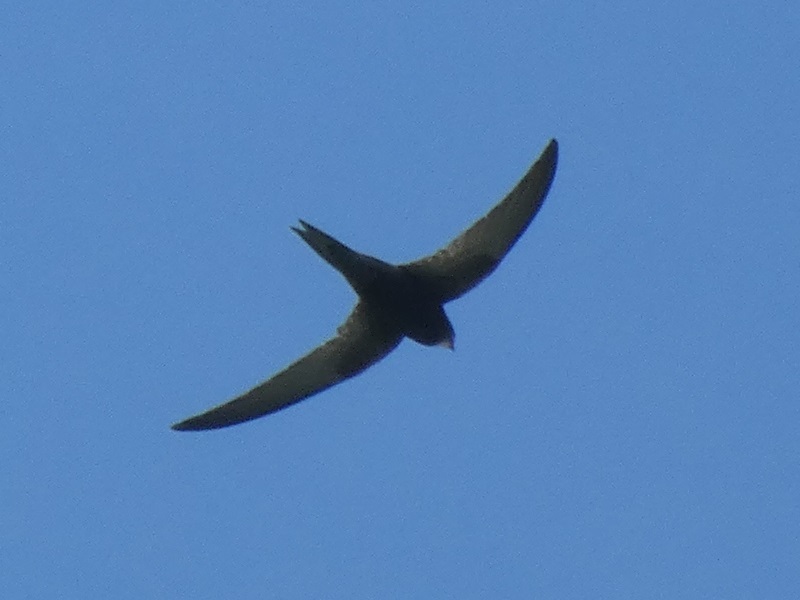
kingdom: Animalia
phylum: Chordata
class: Aves
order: Apodiformes
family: Apodidae
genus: Apus
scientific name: Apus apus
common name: Common swift
